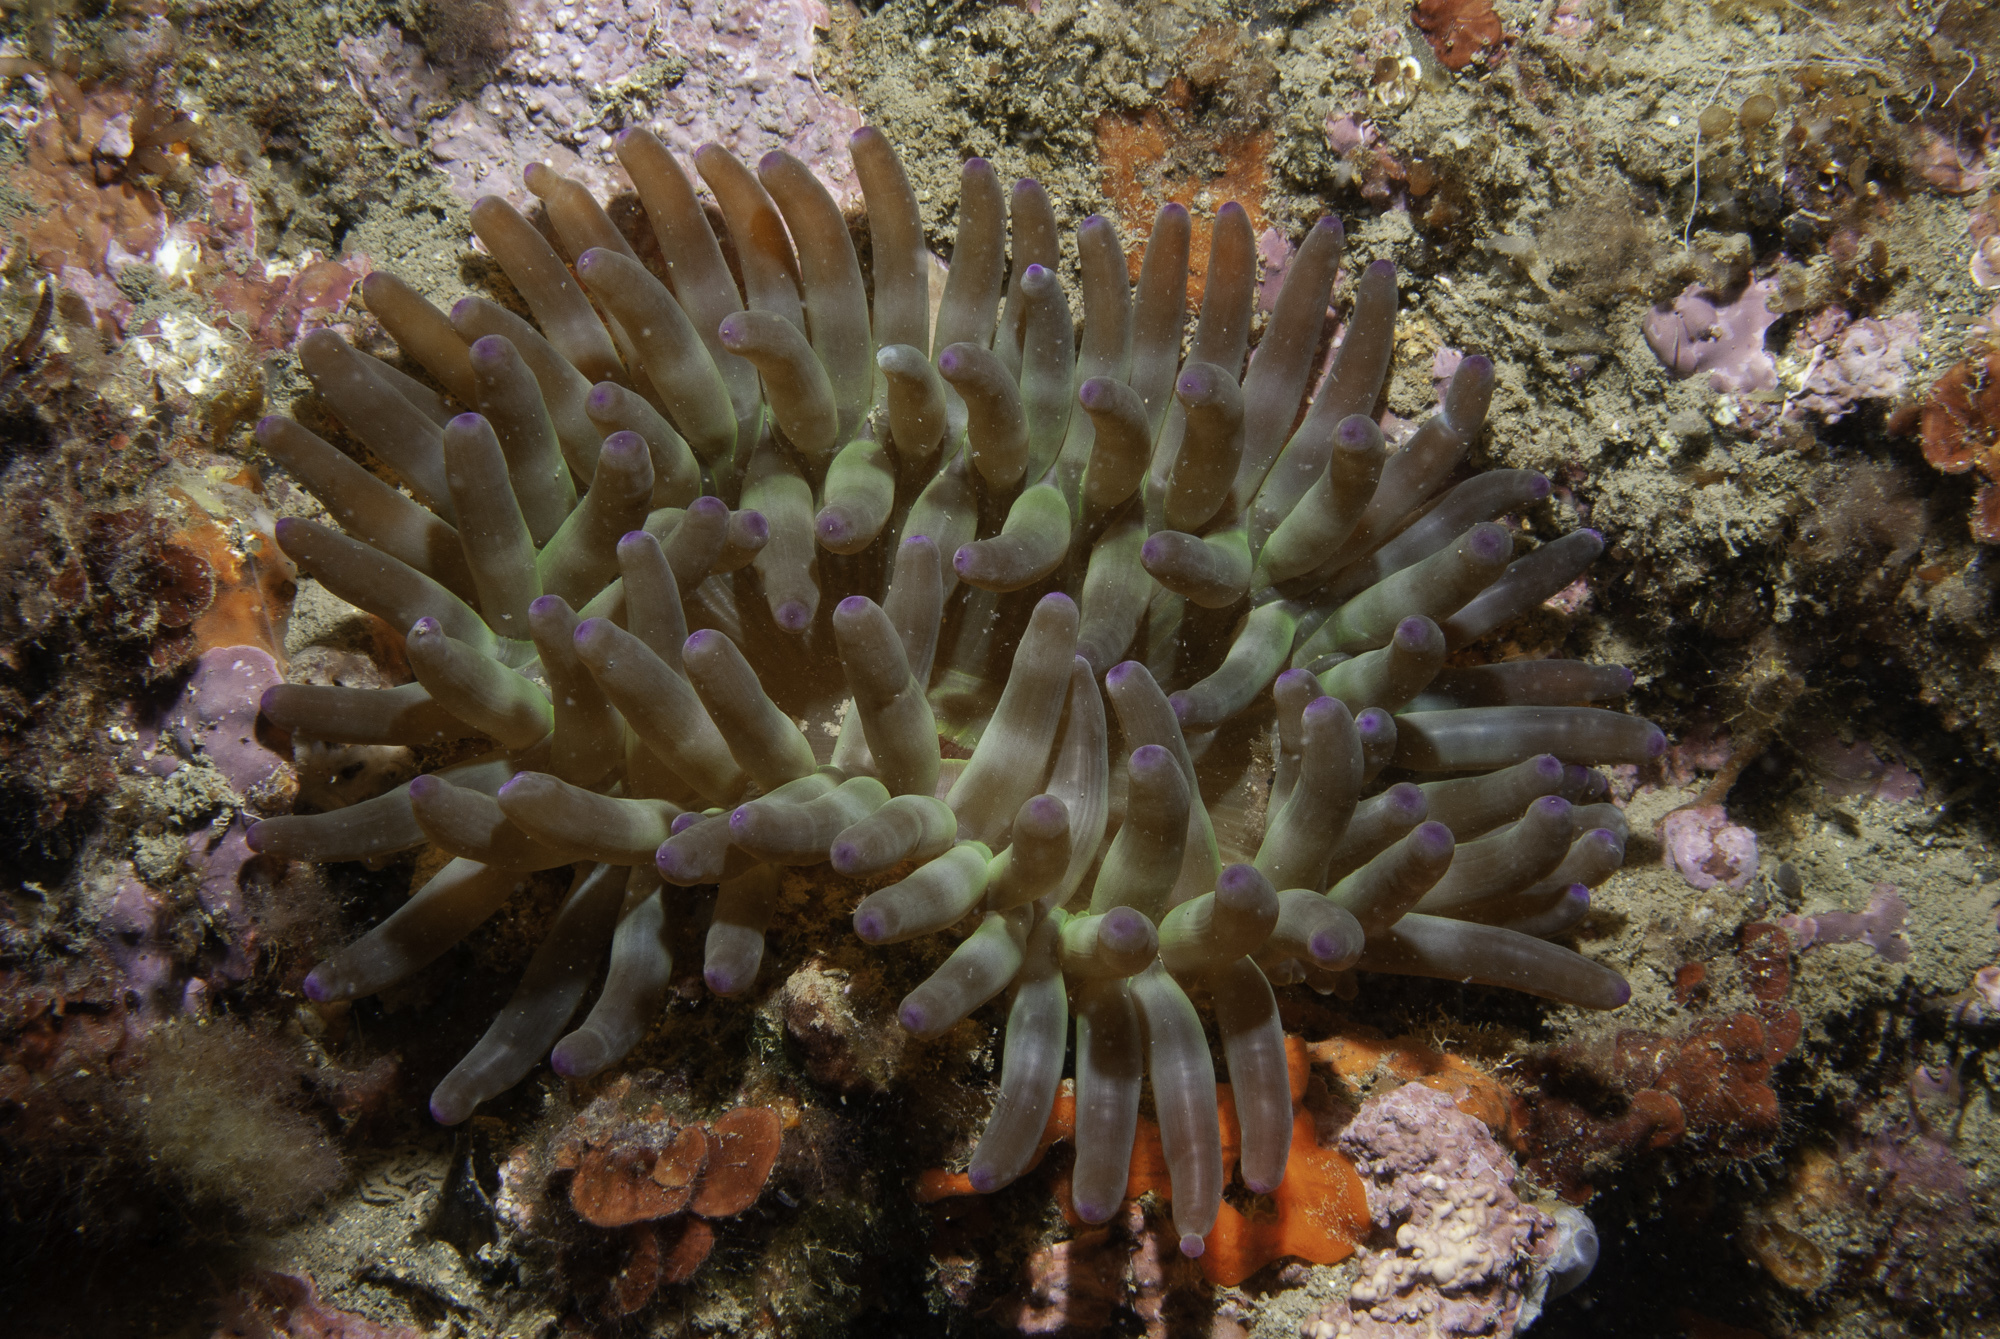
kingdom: Animalia
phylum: Cnidaria
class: Anthozoa
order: Actiniaria
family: Actiniidae
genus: Cribrinopsis
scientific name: Cribrinopsis crassa
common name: Fat anemone
